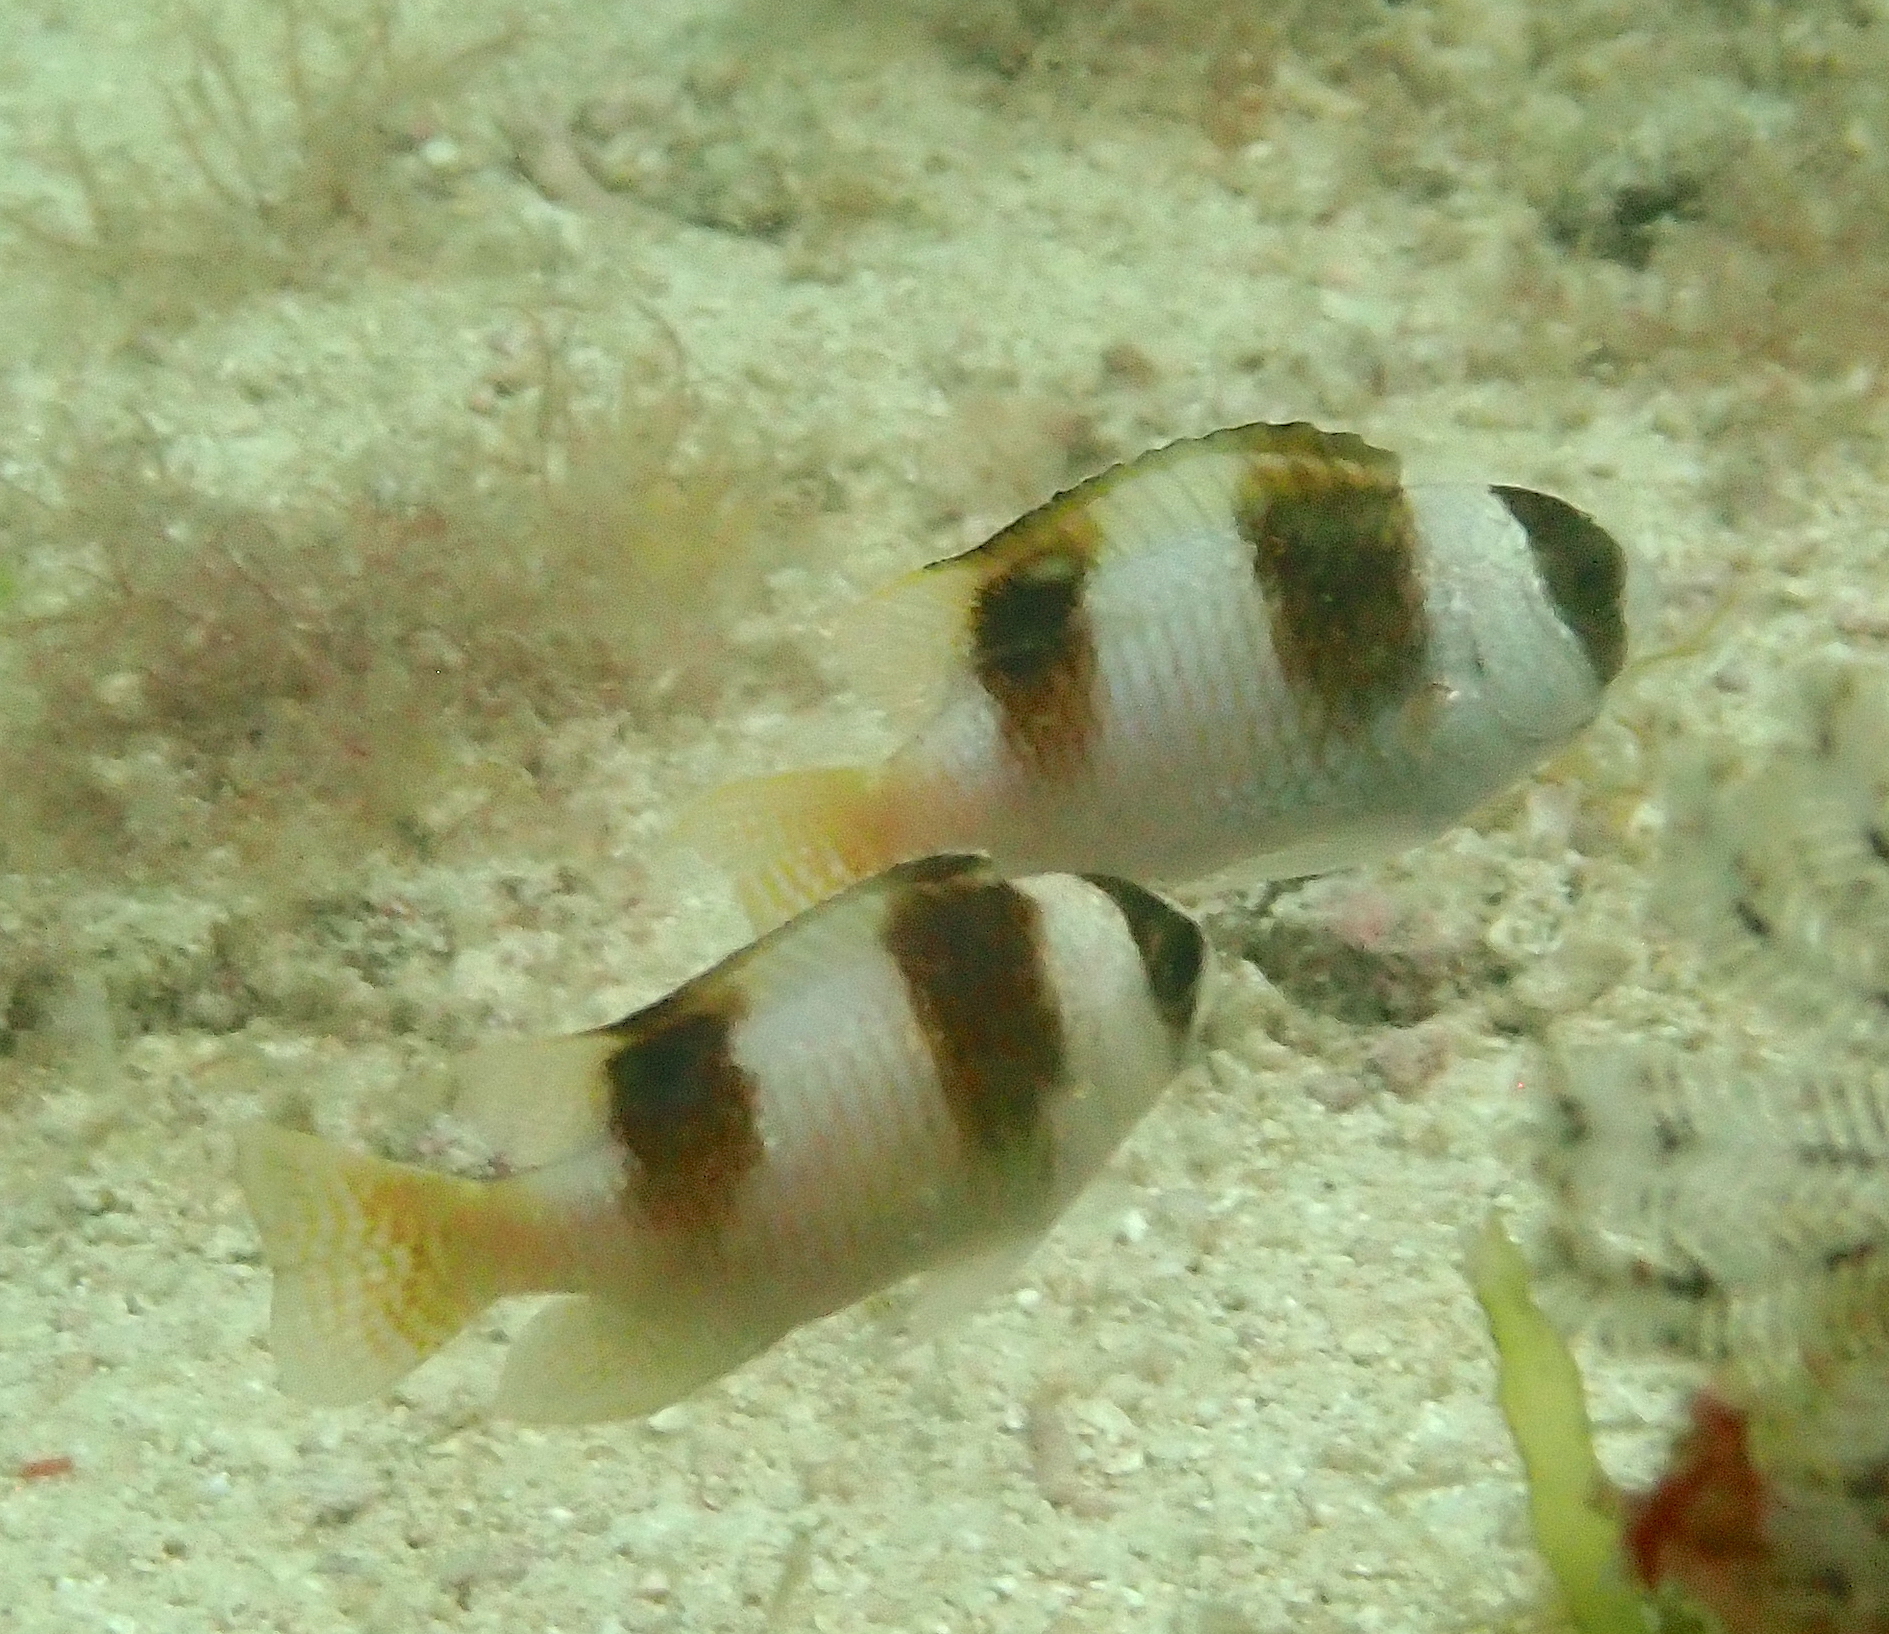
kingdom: Animalia
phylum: Chordata
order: Perciformes
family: Pomacentridae
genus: Amblypomacentrus
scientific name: Amblypomacentrus breviceps
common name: Black-banded demoiselle
